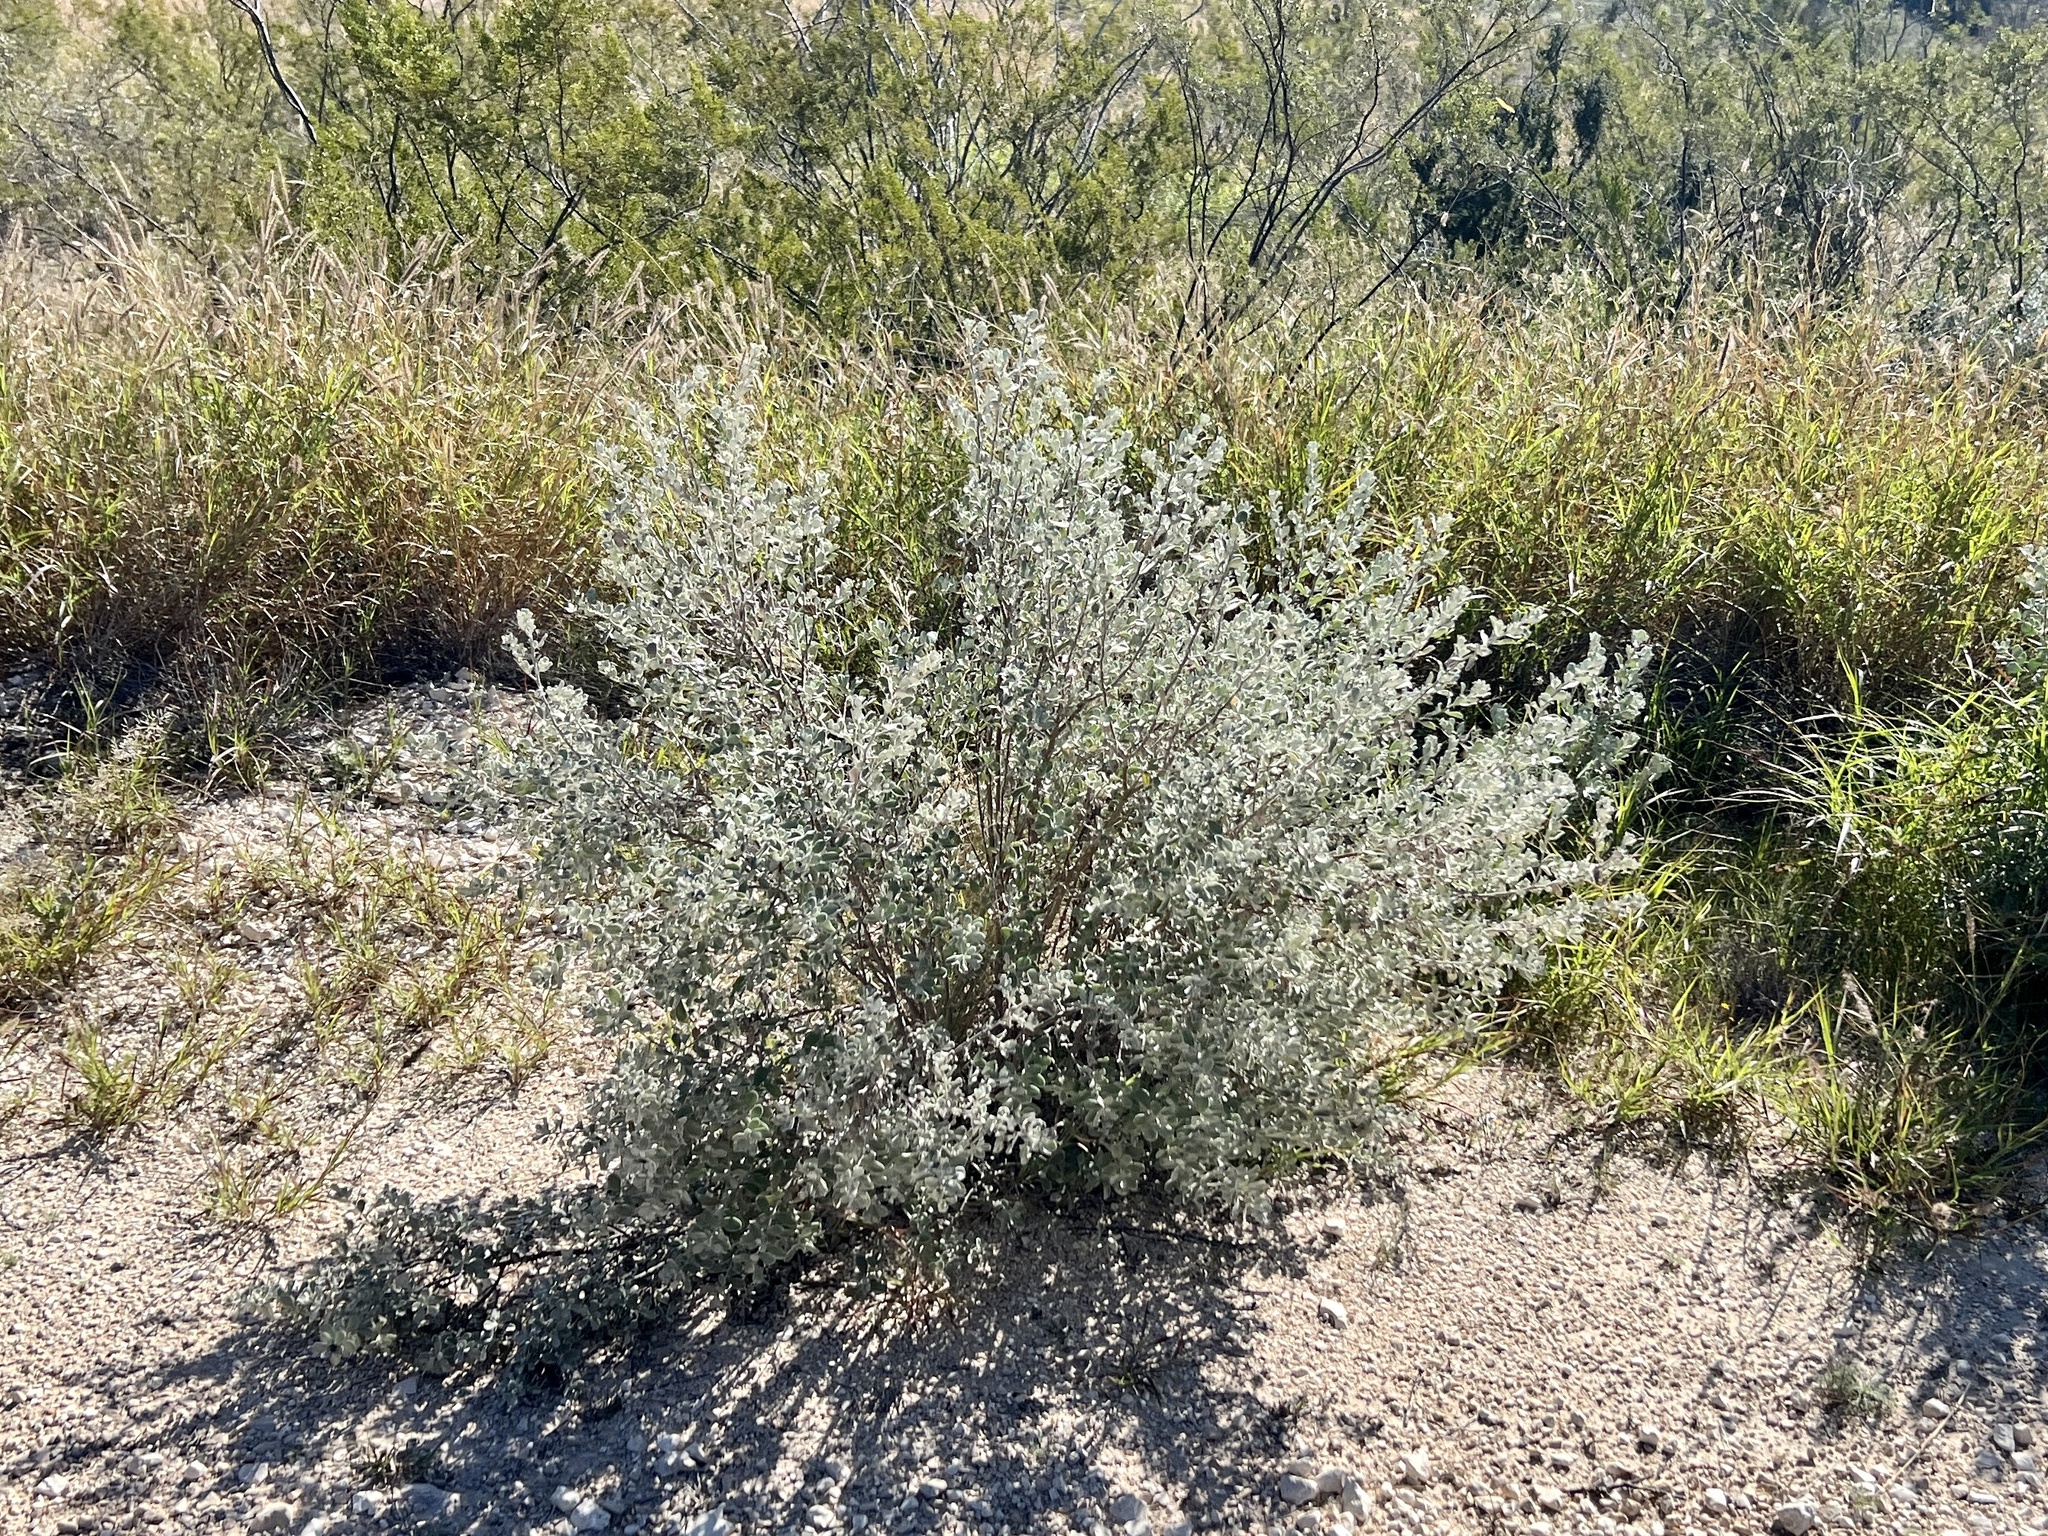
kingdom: Plantae
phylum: Tracheophyta
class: Magnoliopsida
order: Lamiales
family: Scrophulariaceae
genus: Leucophyllum
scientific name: Leucophyllum frutescens
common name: Texas silverleaf
